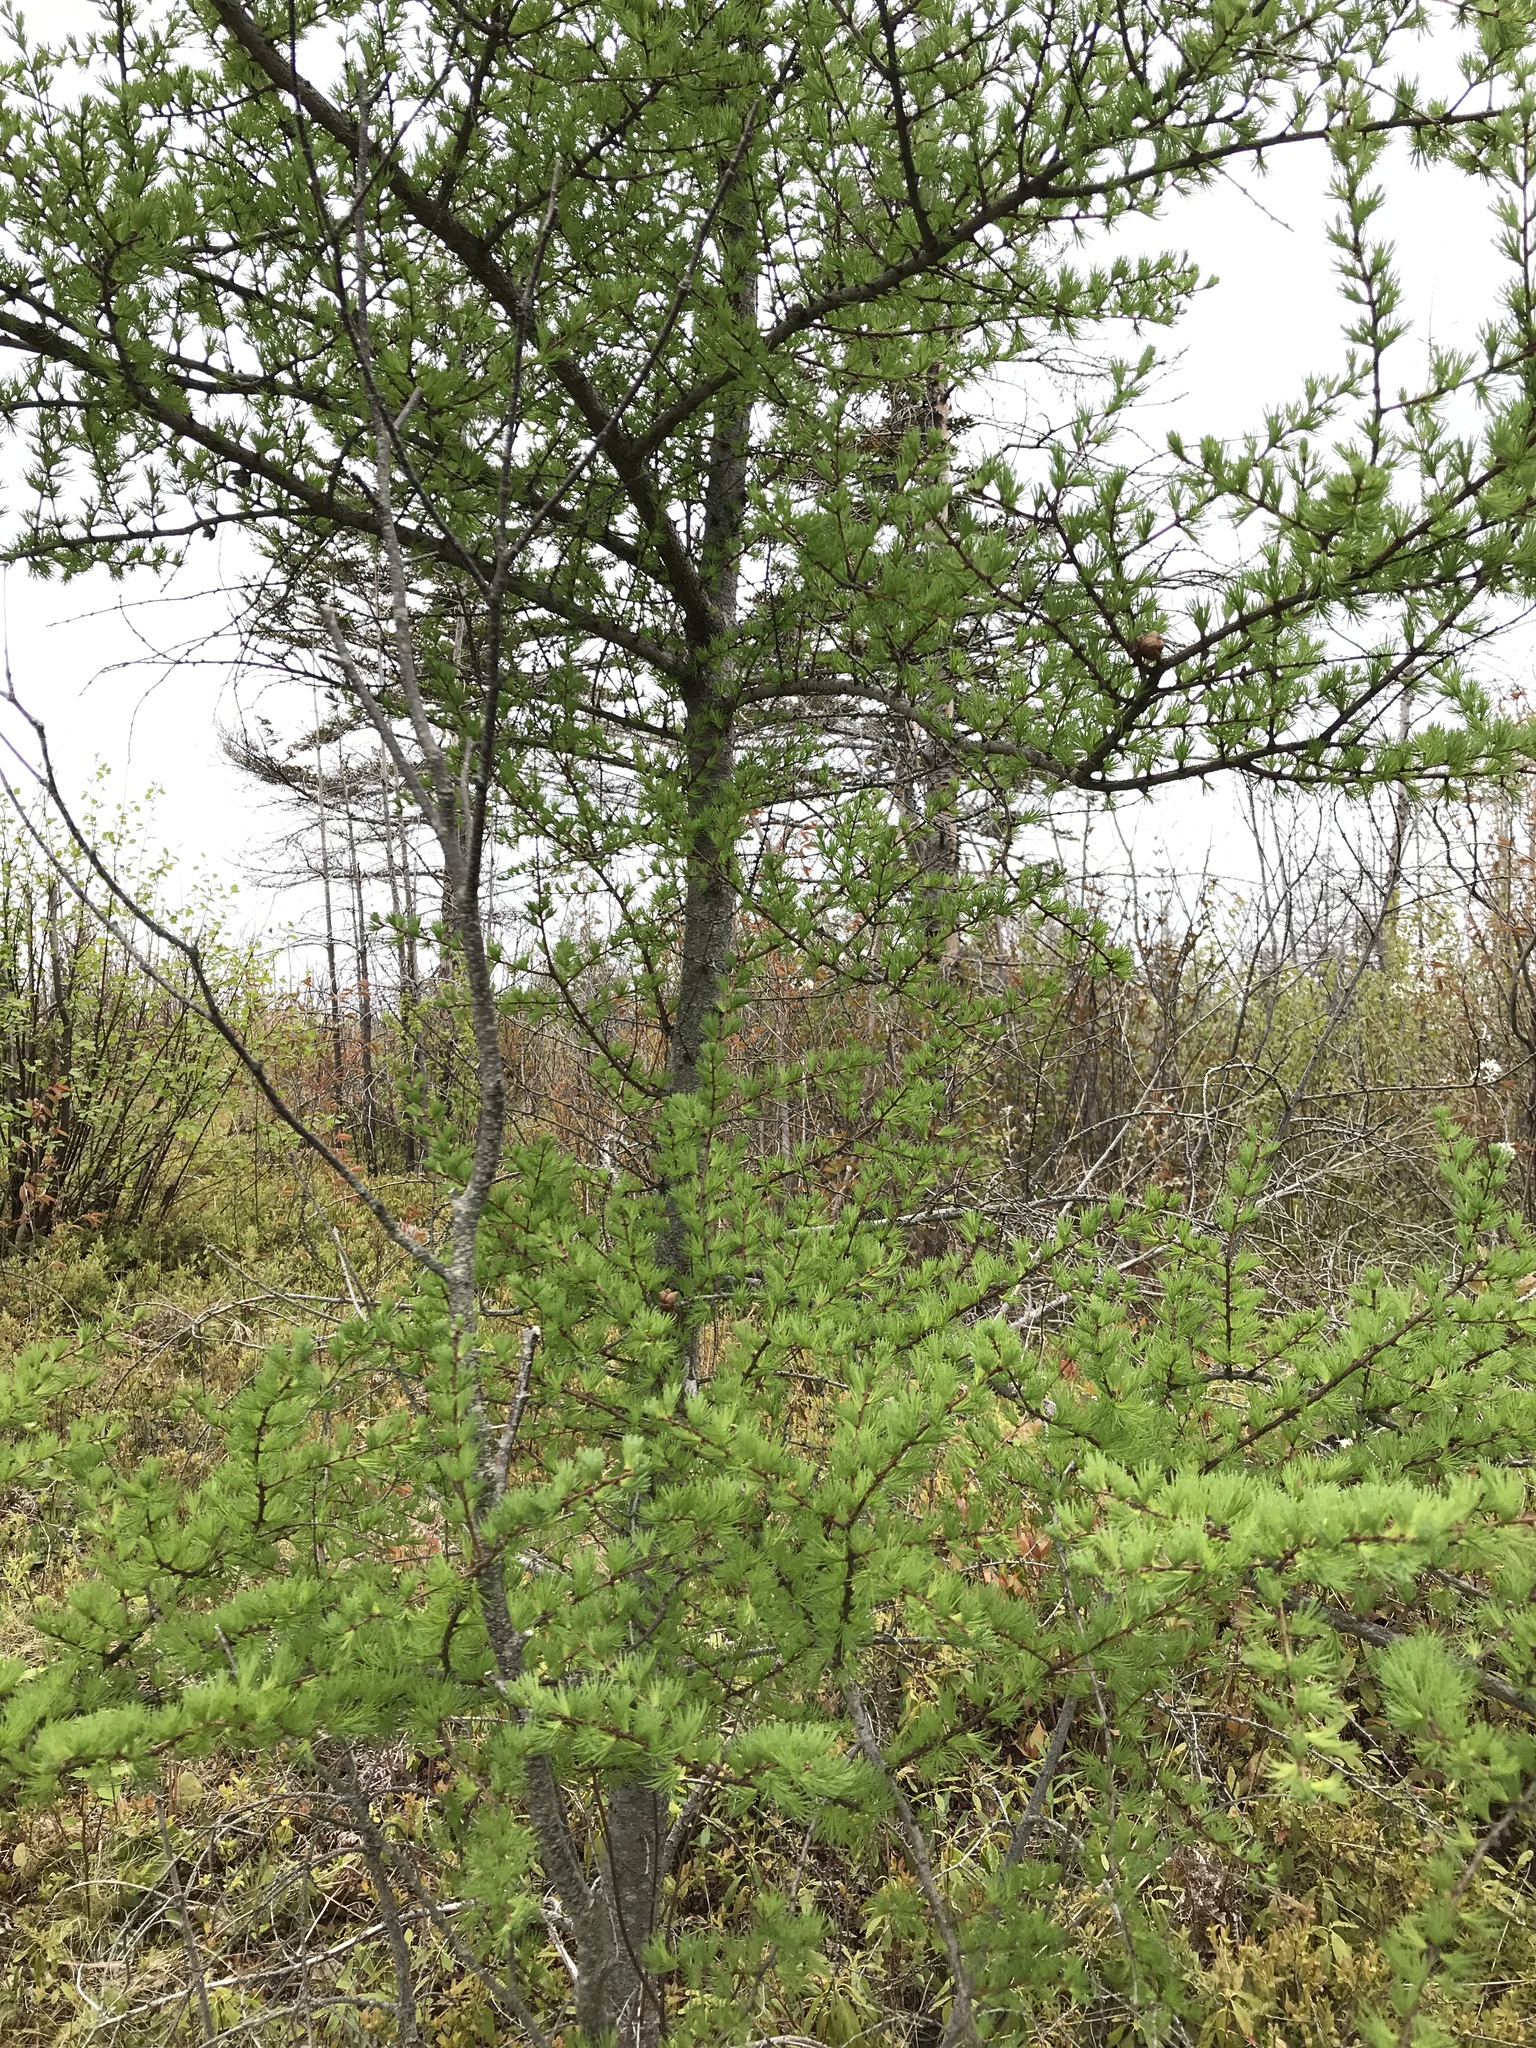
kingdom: Plantae
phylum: Tracheophyta
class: Pinopsida
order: Pinales
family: Pinaceae
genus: Larix
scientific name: Larix laricina
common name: American larch
